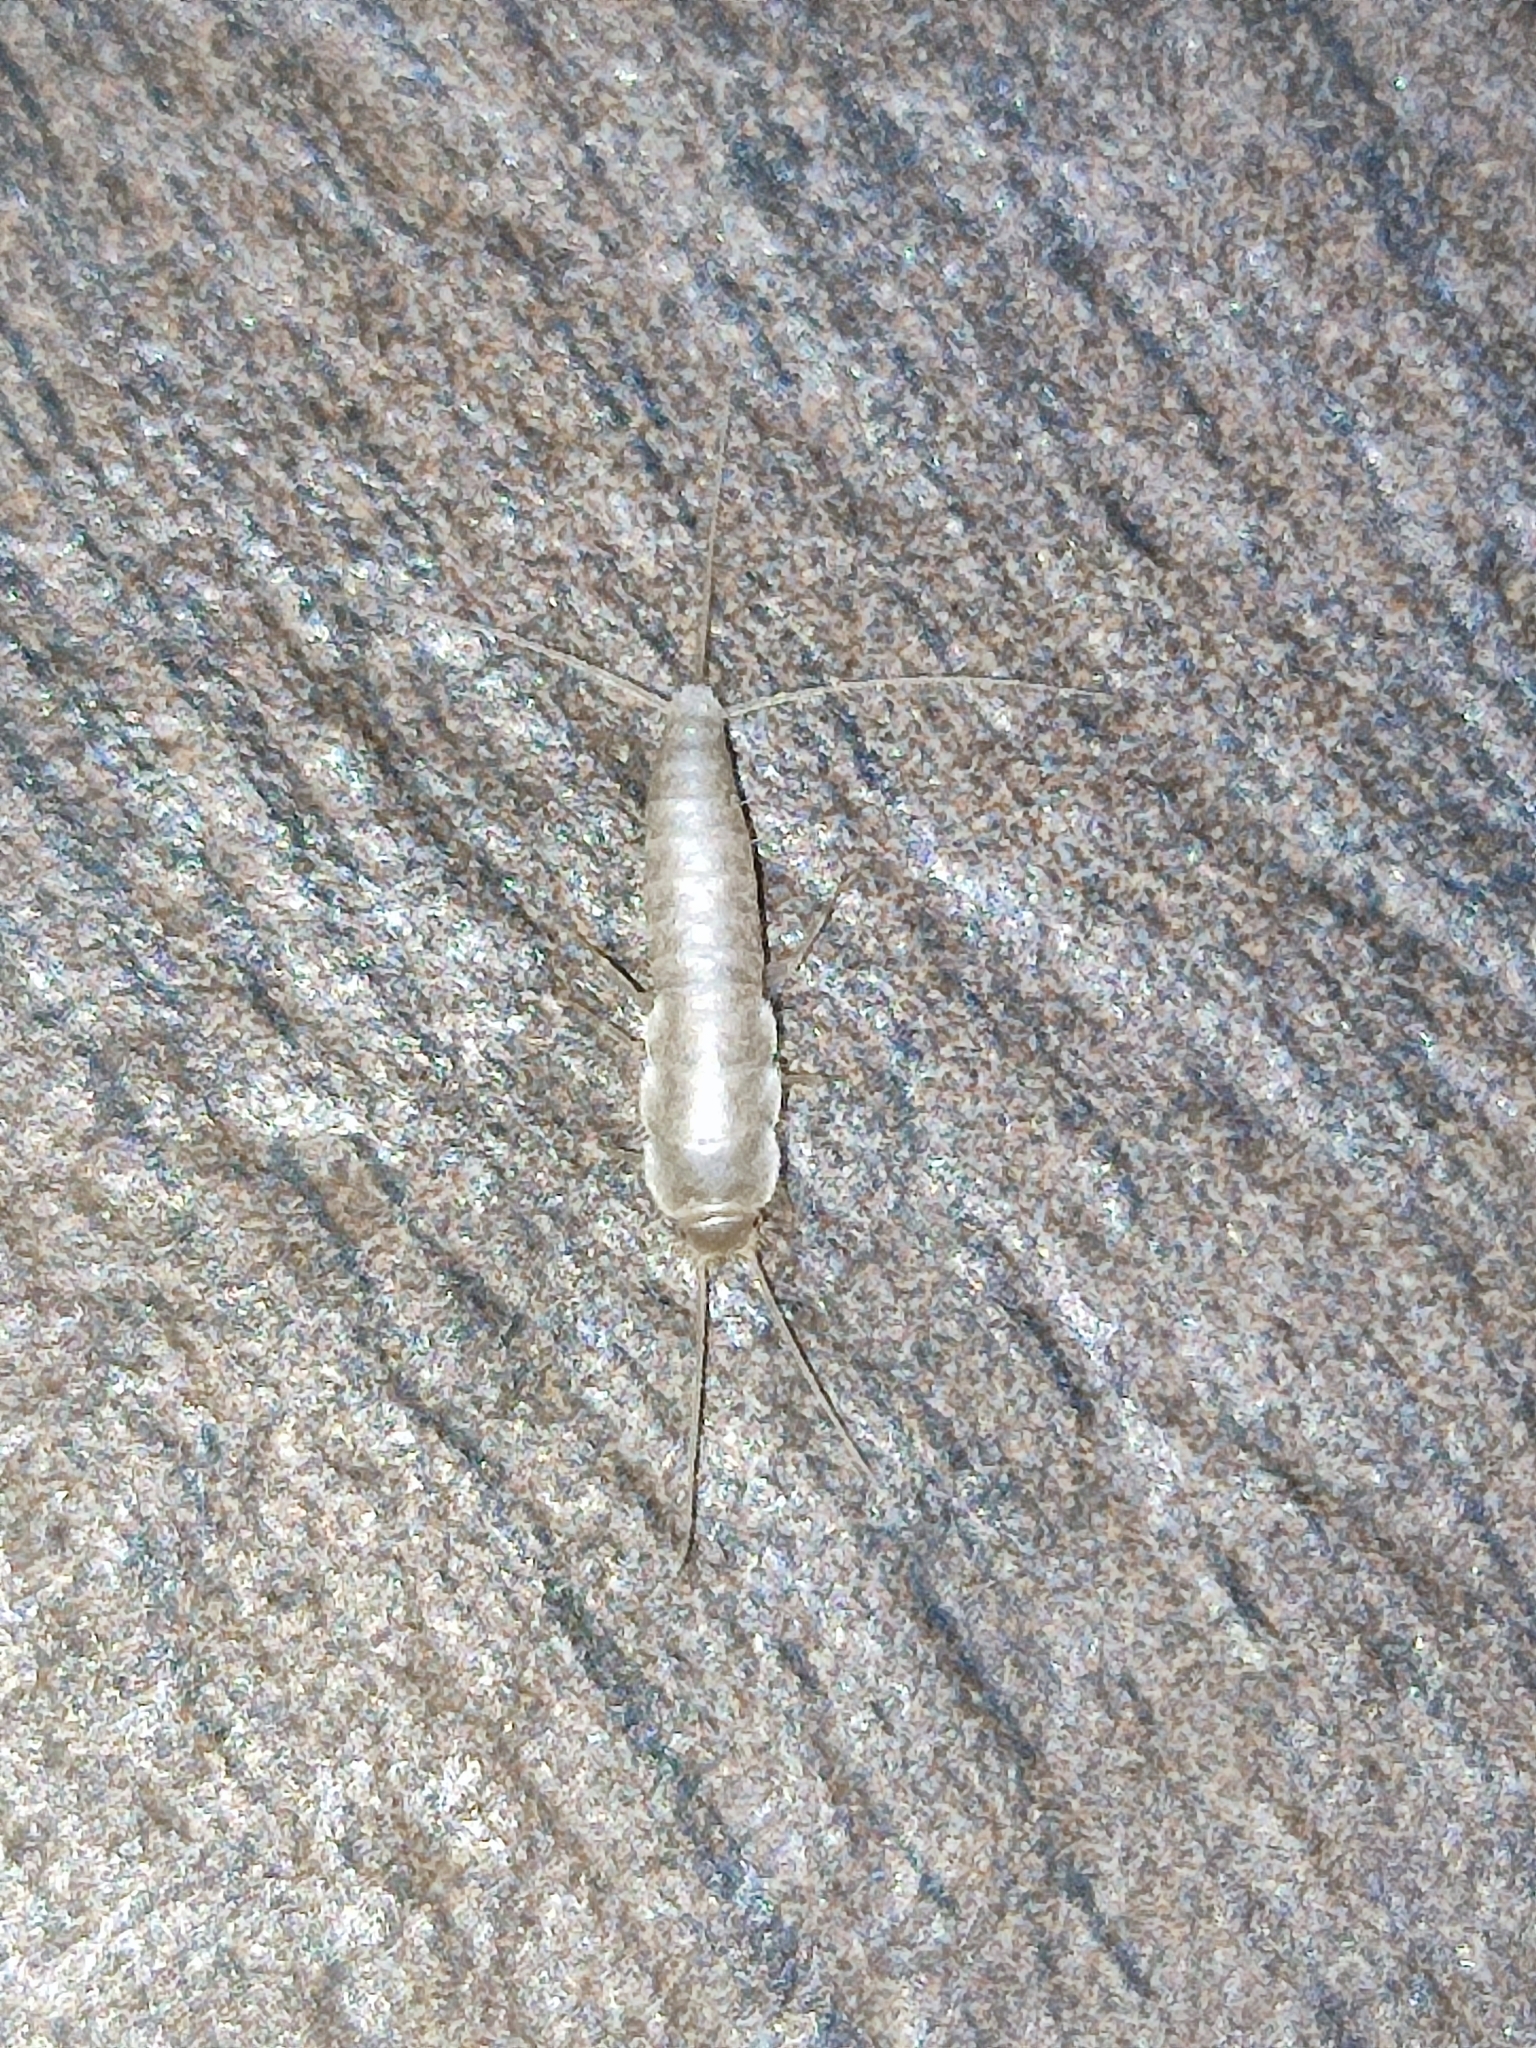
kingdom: Animalia
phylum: Arthropoda
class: Insecta
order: Zygentoma
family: Lepismatidae
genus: Ctenolepisma
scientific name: Ctenolepisma calvum
